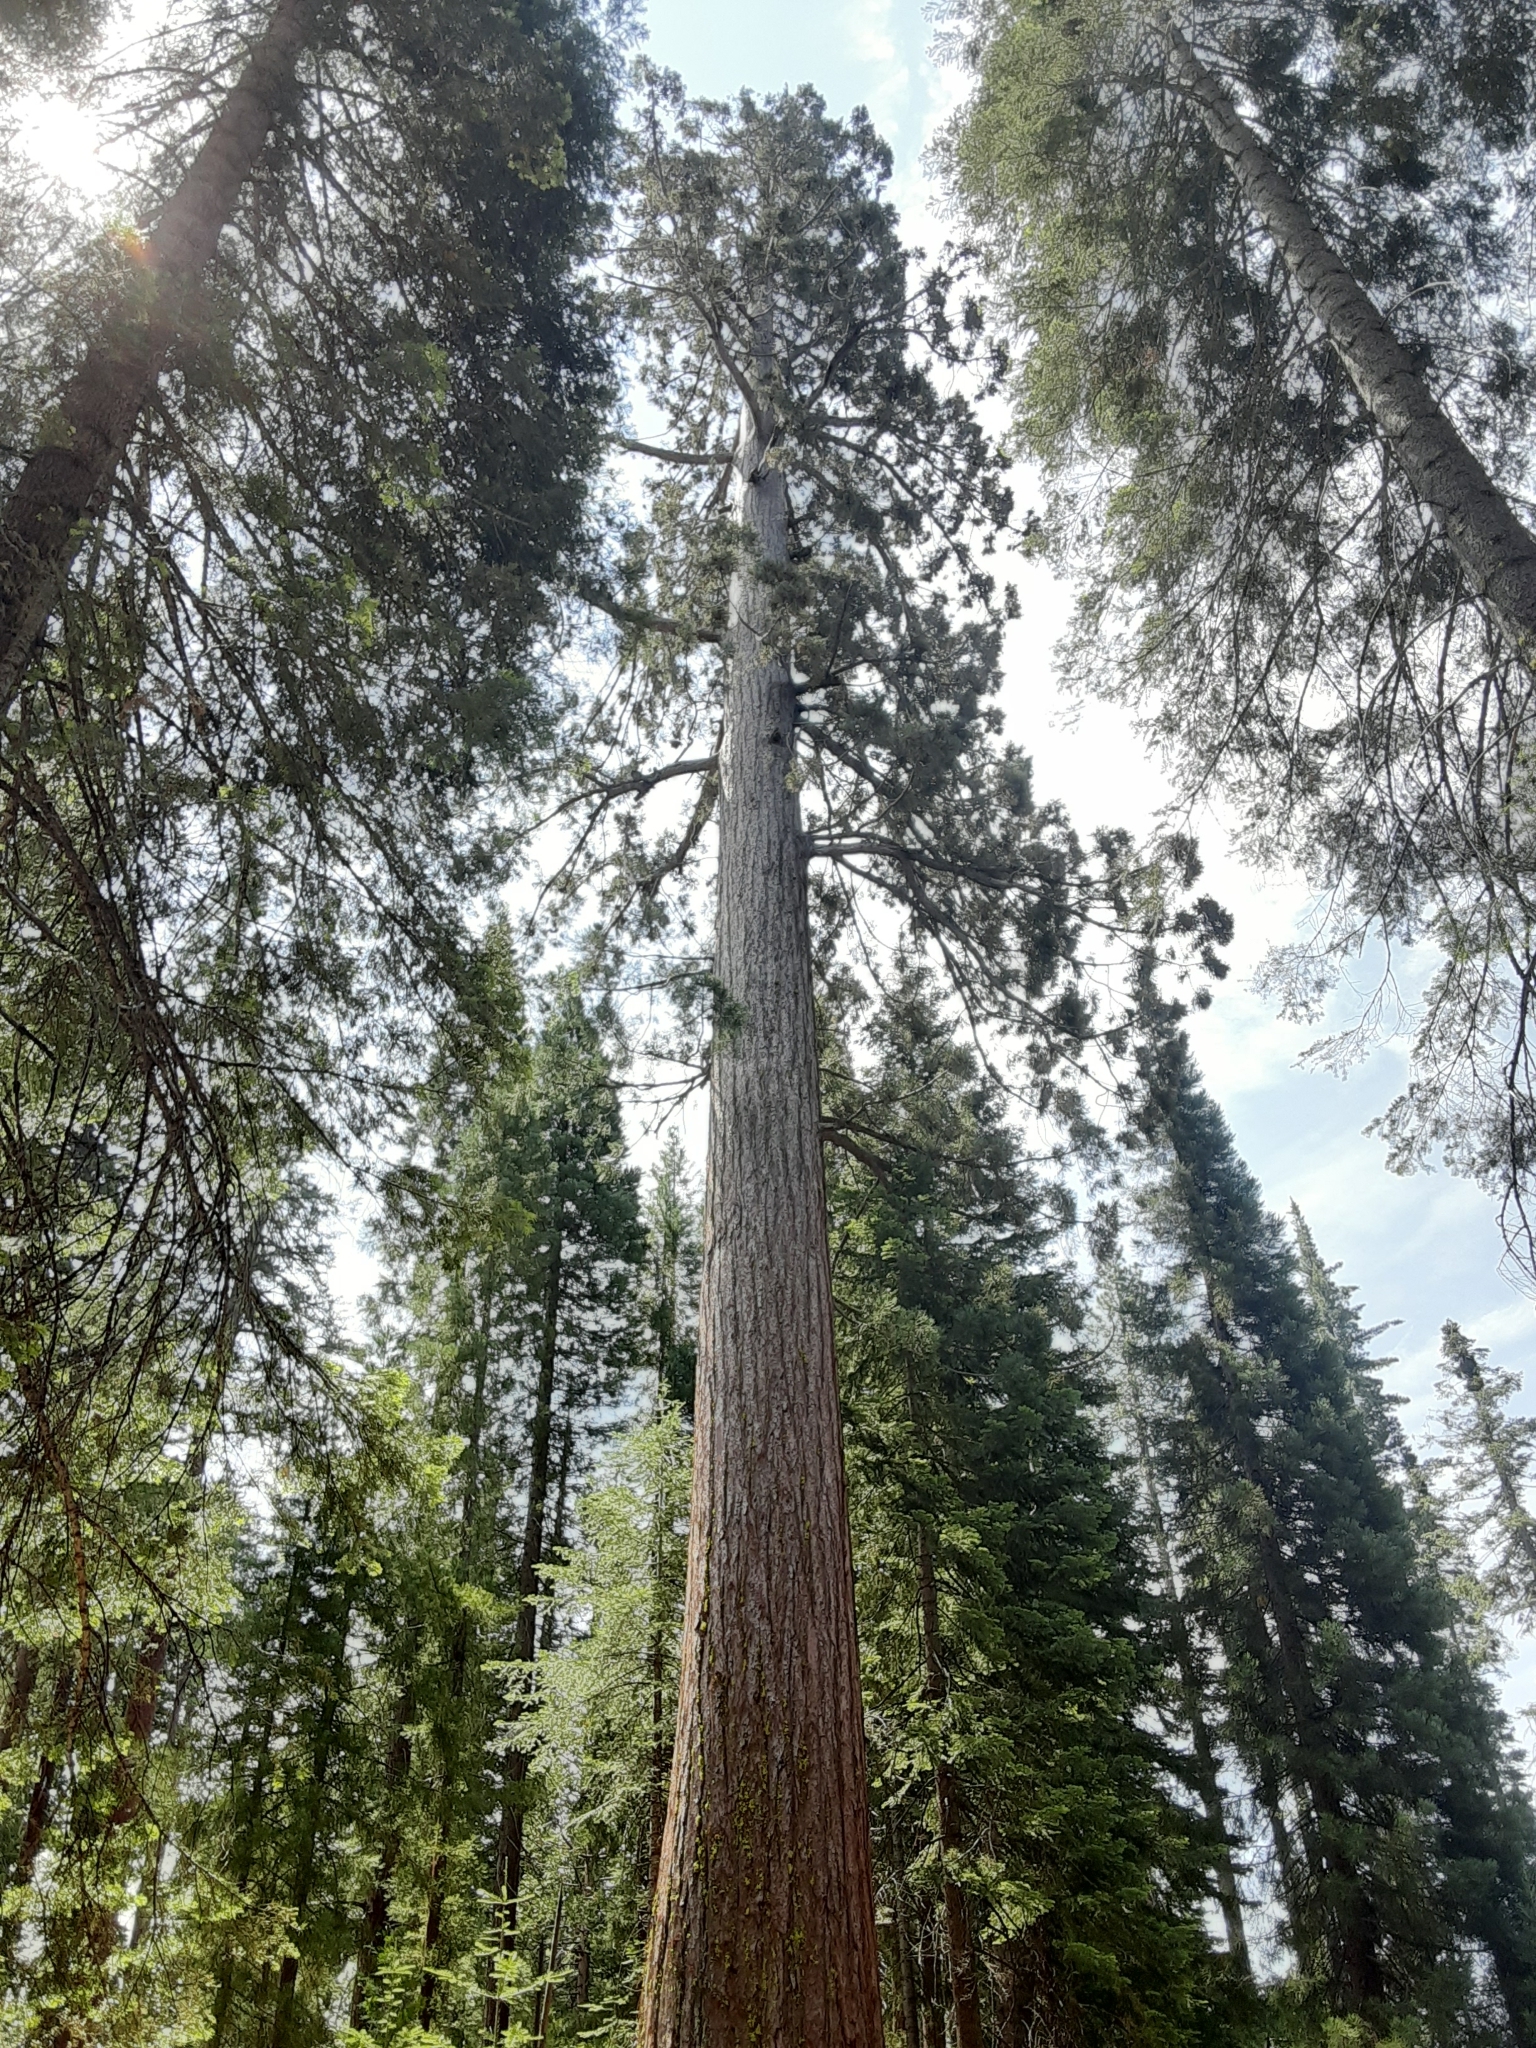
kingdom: Plantae
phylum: Tracheophyta
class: Pinopsida
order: Pinales
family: Cupressaceae
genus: Sequoiadendron
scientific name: Sequoiadendron giganteum
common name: Wellingtonia
